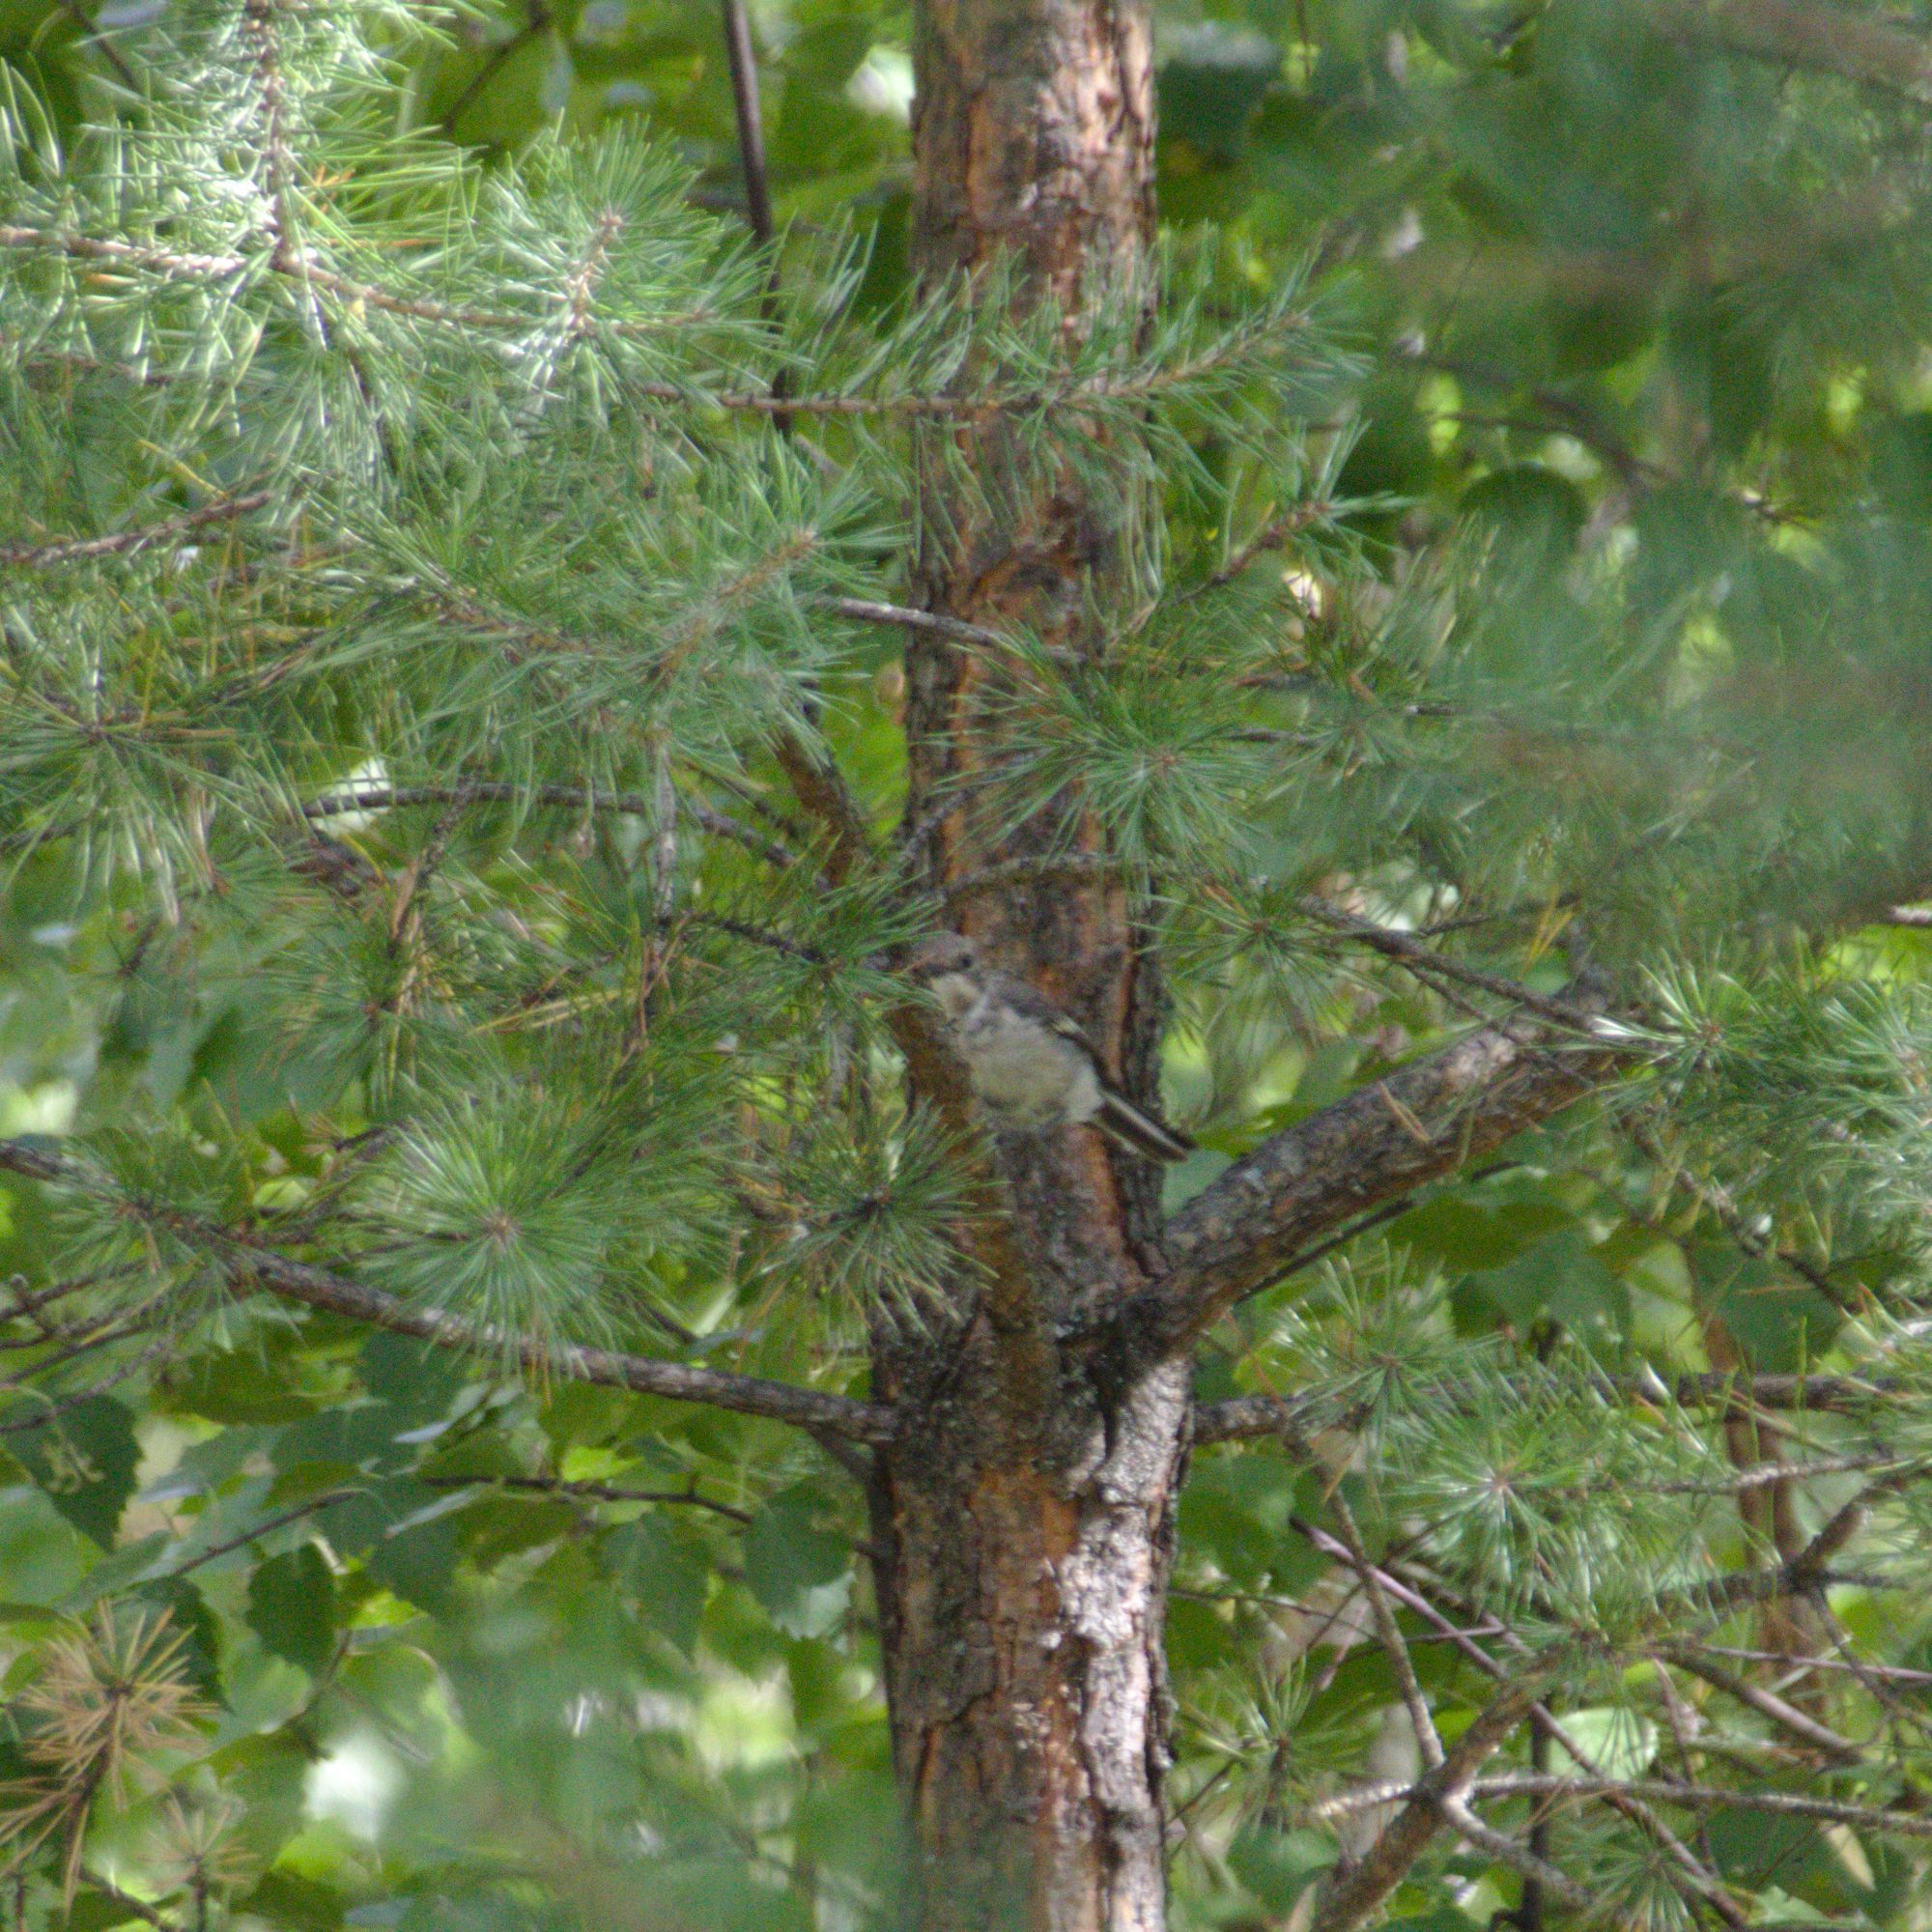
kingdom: Animalia
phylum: Chordata
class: Aves
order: Passeriformes
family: Muscicapidae
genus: Ficedula
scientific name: Ficedula hypoleuca
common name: European pied flycatcher
